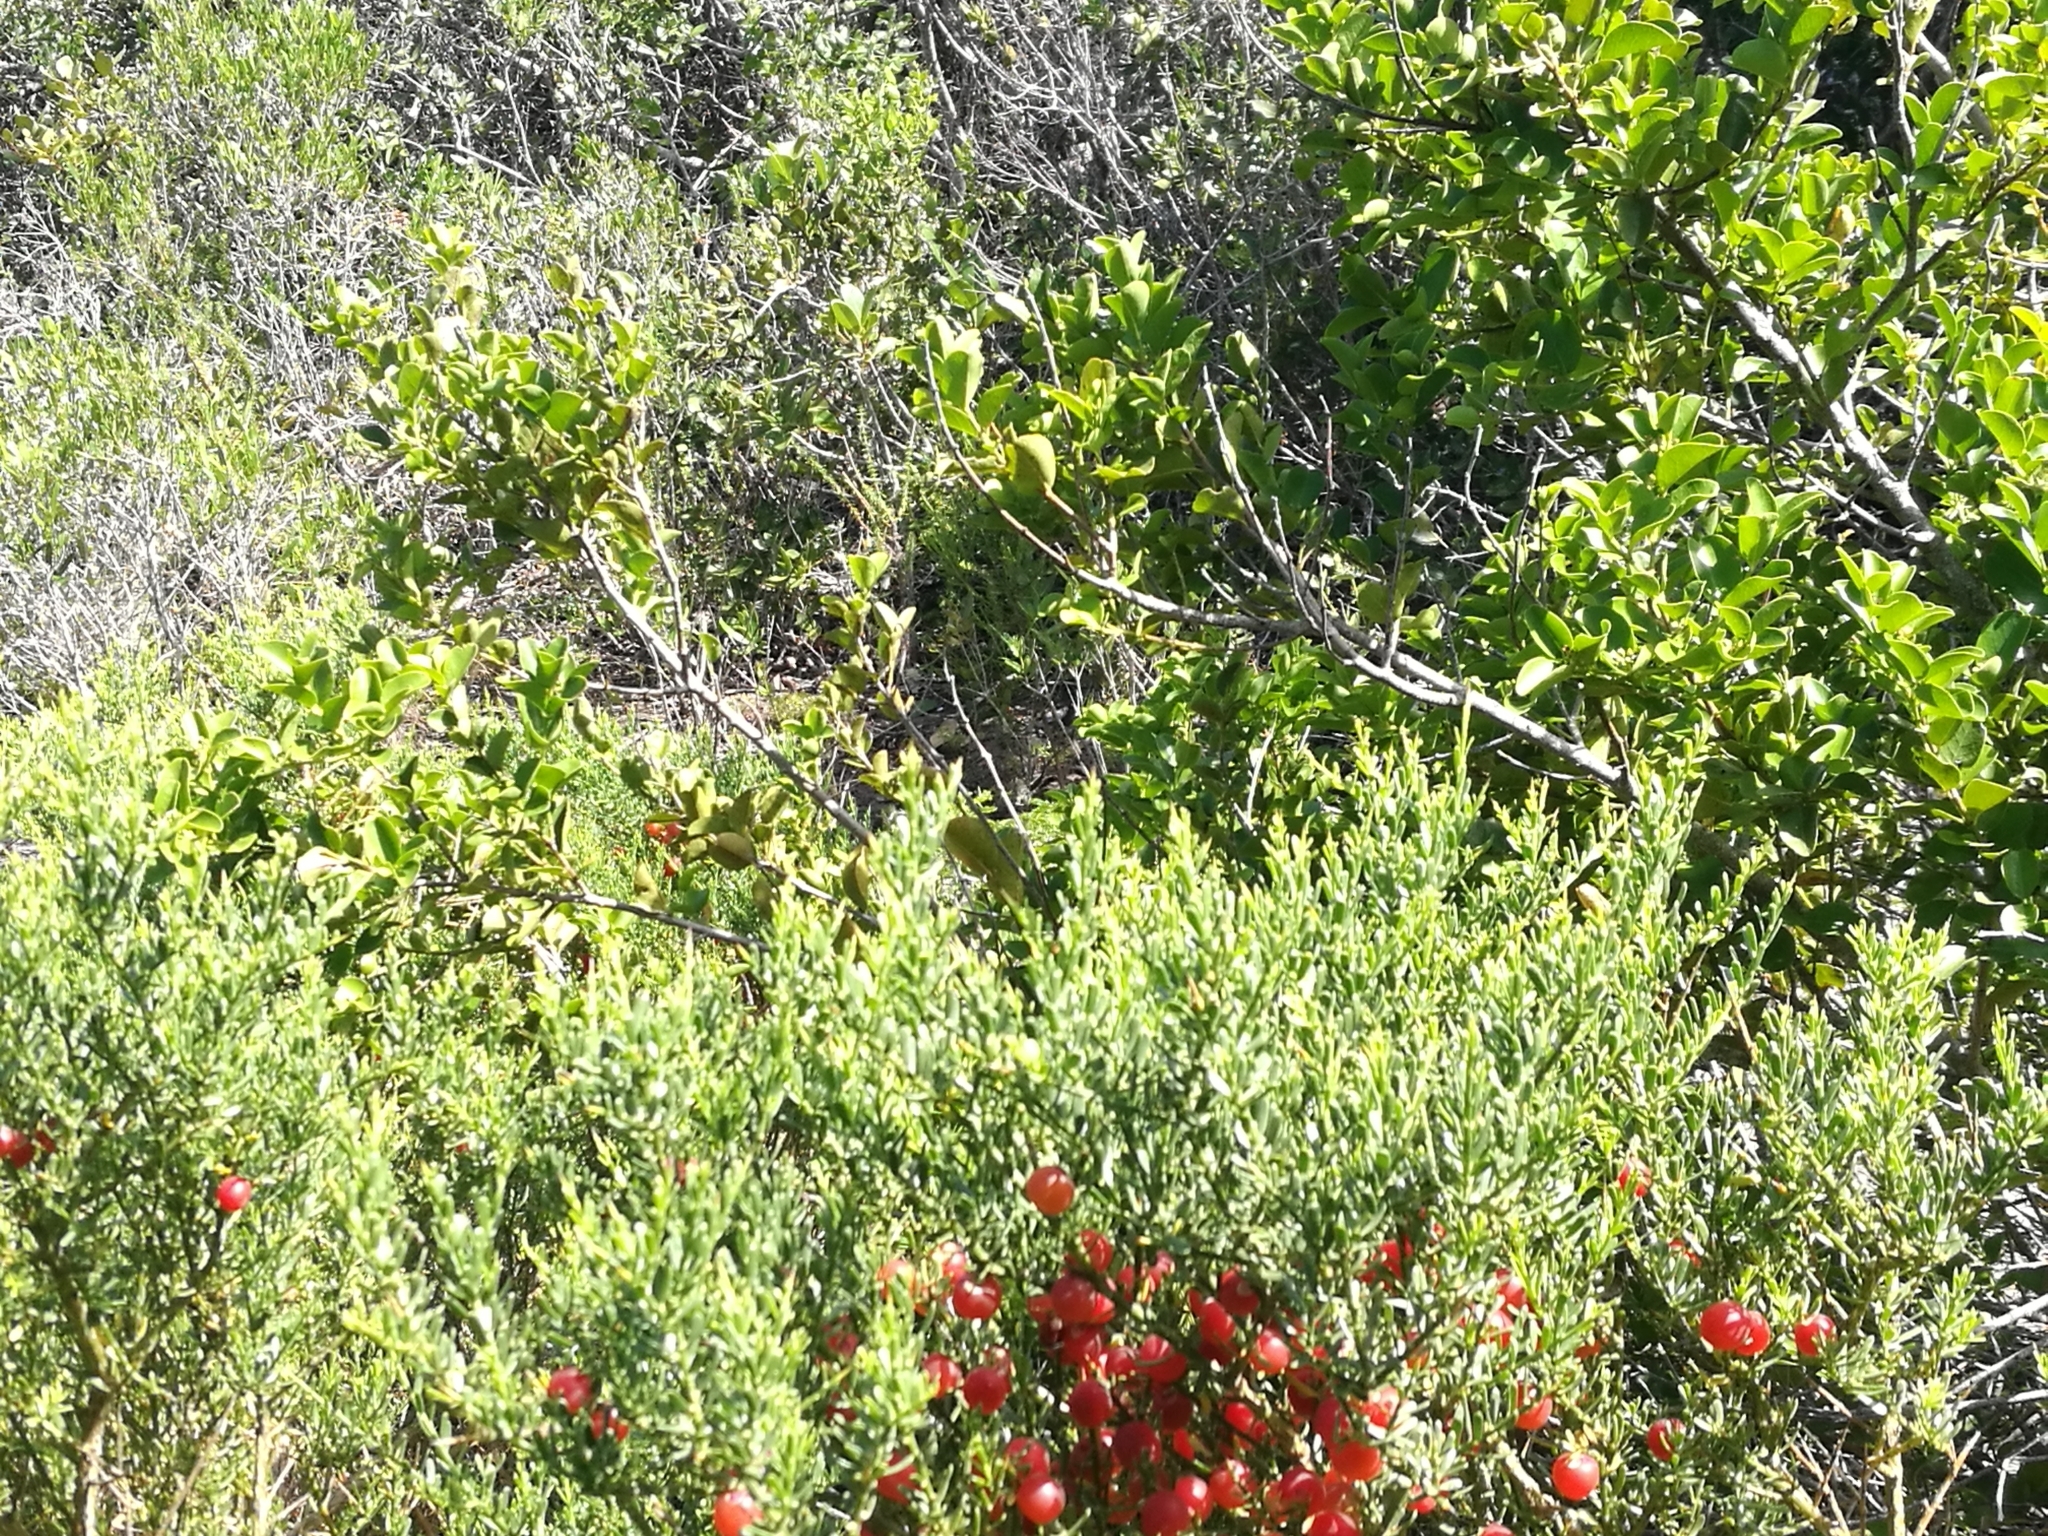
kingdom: Plantae
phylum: Tracheophyta
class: Magnoliopsida
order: Fabales
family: Polygalaceae
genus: Muraltia
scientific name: Muraltia spinosa
